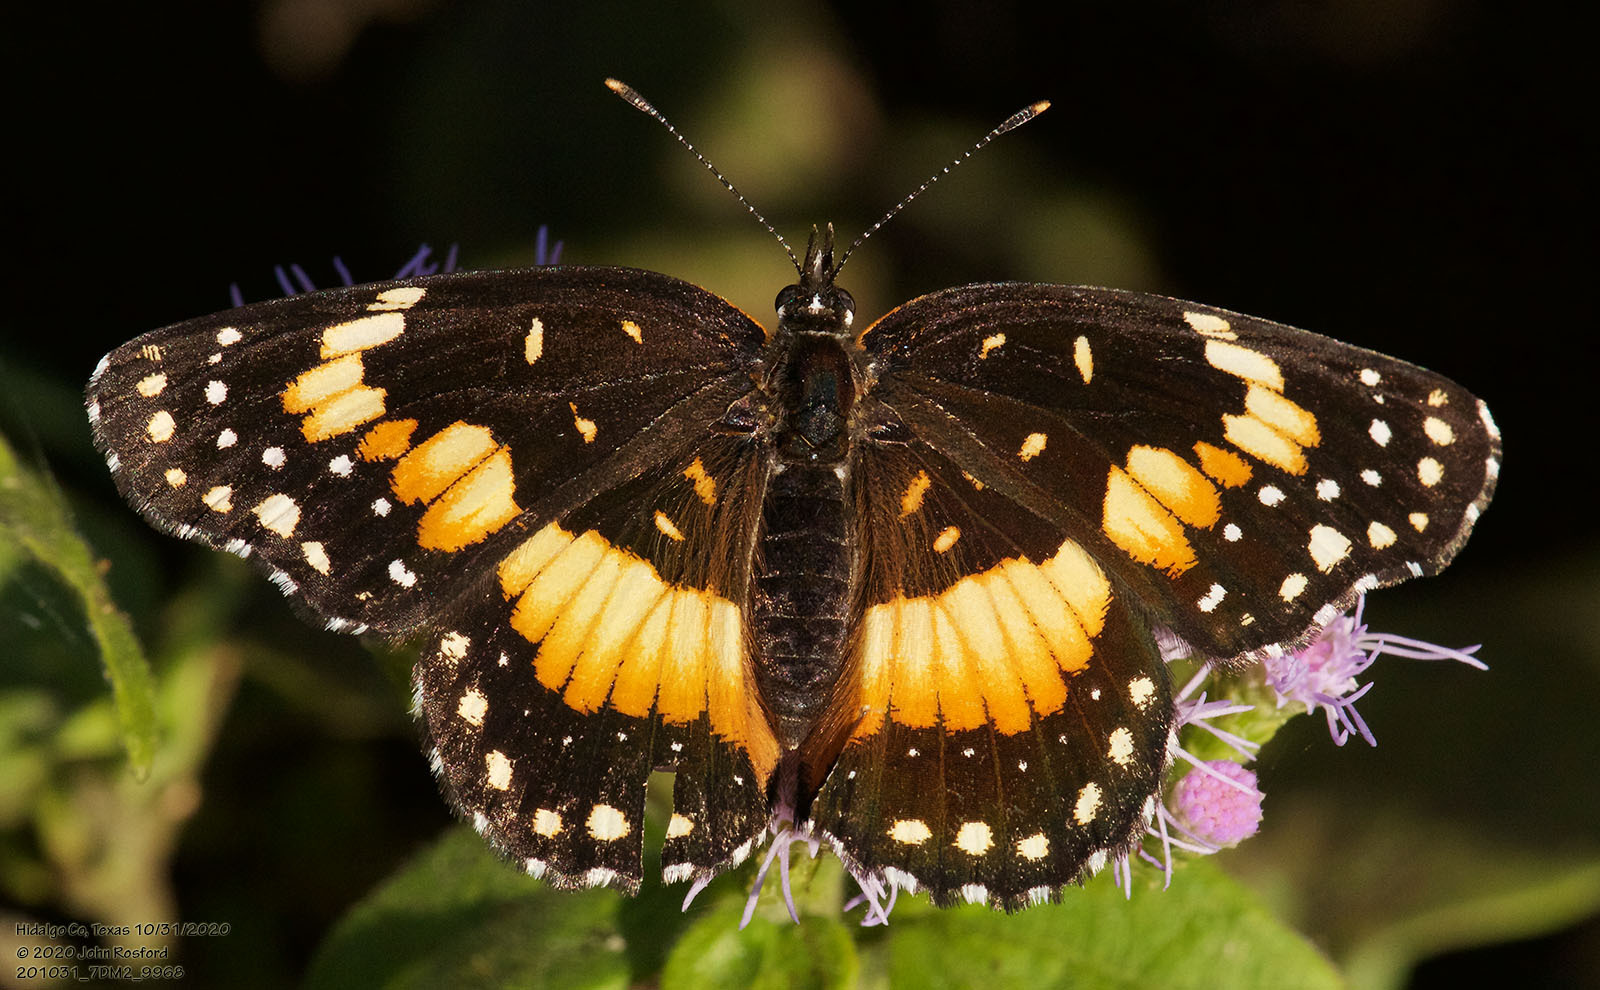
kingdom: Animalia
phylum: Arthropoda
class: Insecta
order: Lepidoptera
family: Nymphalidae
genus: Chlosyne
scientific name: Chlosyne lacinia
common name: Bordered patch
